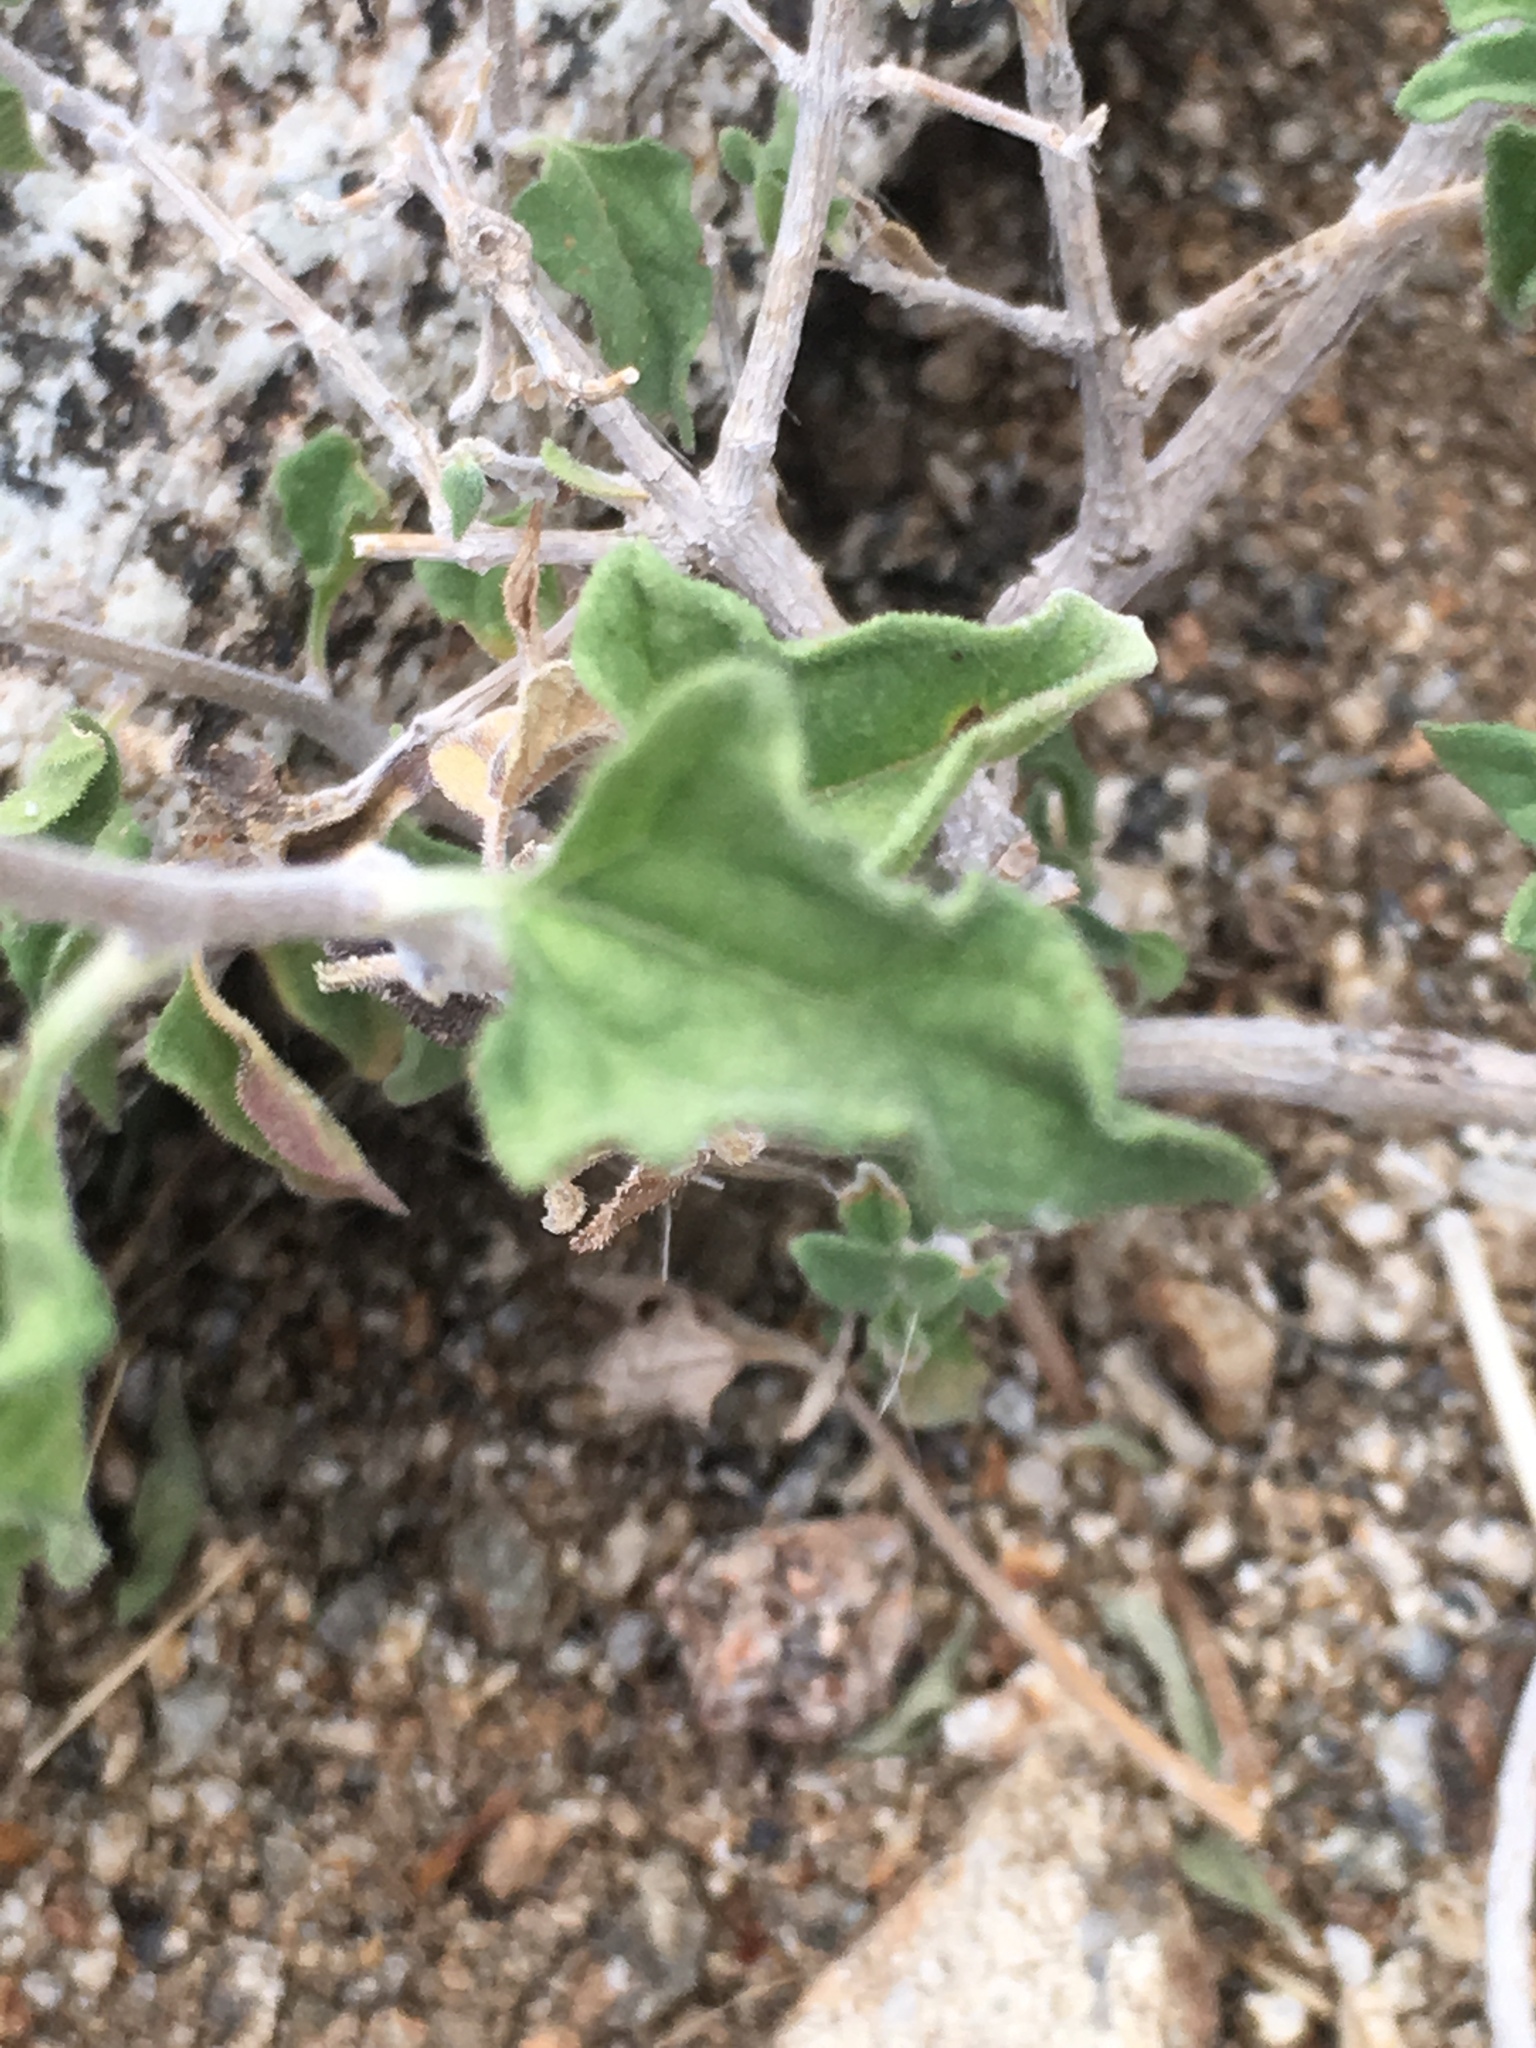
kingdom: Plantae
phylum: Tracheophyta
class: Magnoliopsida
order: Asterales
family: Asteraceae
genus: Bahiopsis
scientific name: Bahiopsis parishii
